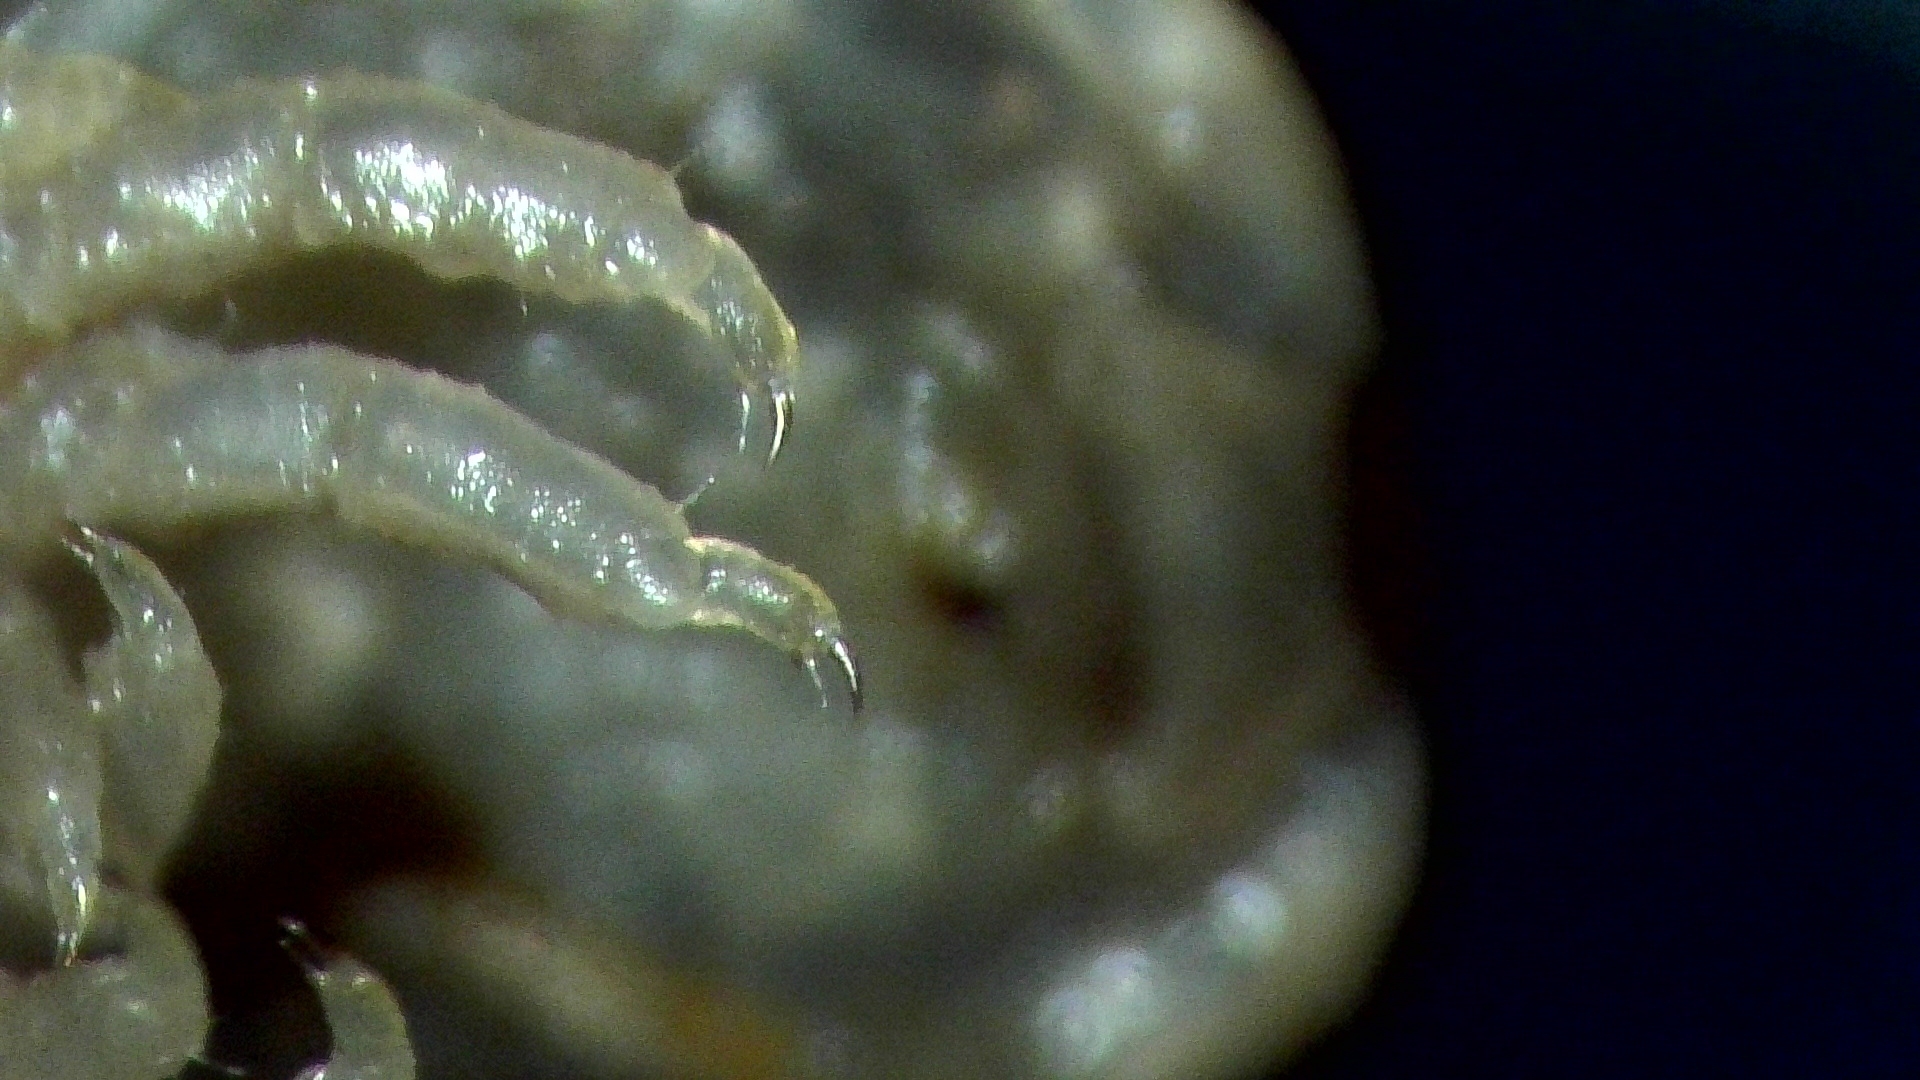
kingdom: Animalia
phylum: Arthropoda
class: Malacostraca
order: Isopoda
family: Sphaeromatidae
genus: Lekanesphaera
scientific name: Lekanesphaera rugicauda
